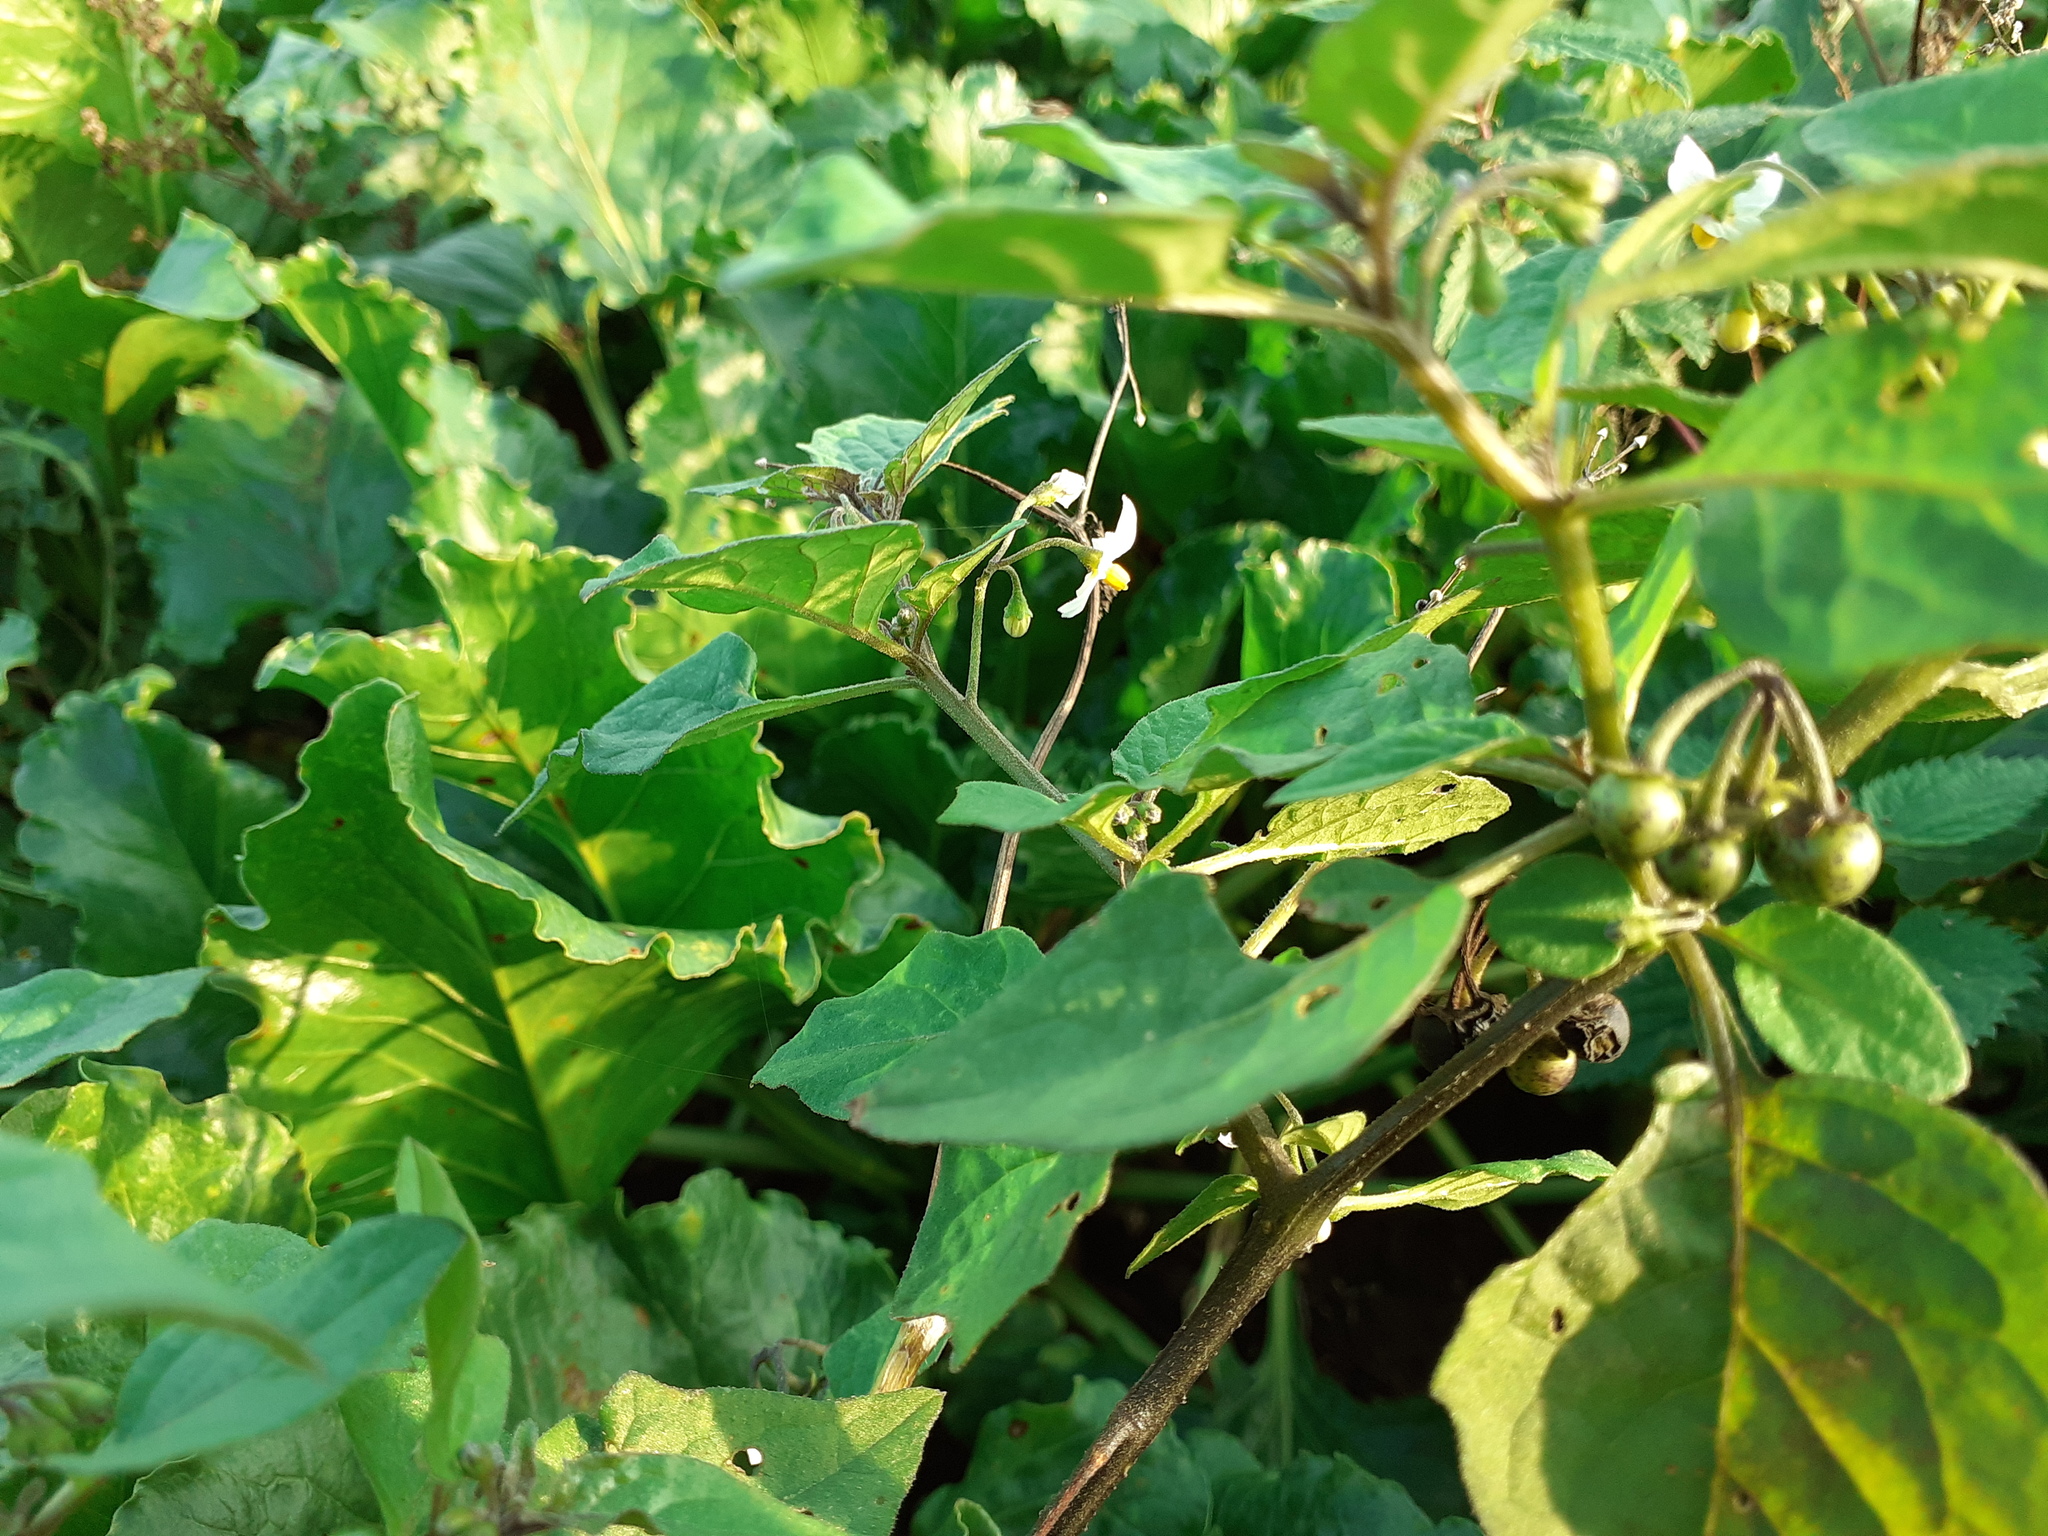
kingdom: Plantae
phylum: Tracheophyta
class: Magnoliopsida
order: Solanales
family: Solanaceae
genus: Solanum
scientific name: Solanum nigrum
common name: Black nightshade
